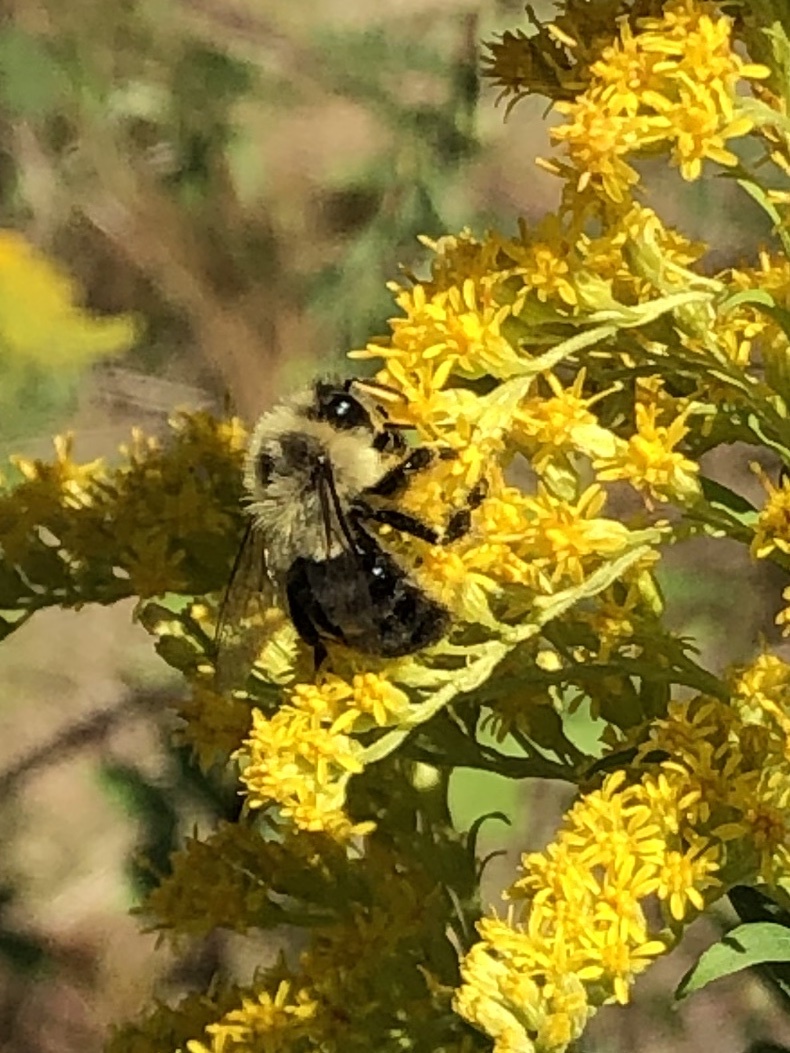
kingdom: Animalia
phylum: Arthropoda
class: Insecta
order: Hymenoptera
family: Apidae
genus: Bombus
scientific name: Bombus impatiens
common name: Common eastern bumble bee
